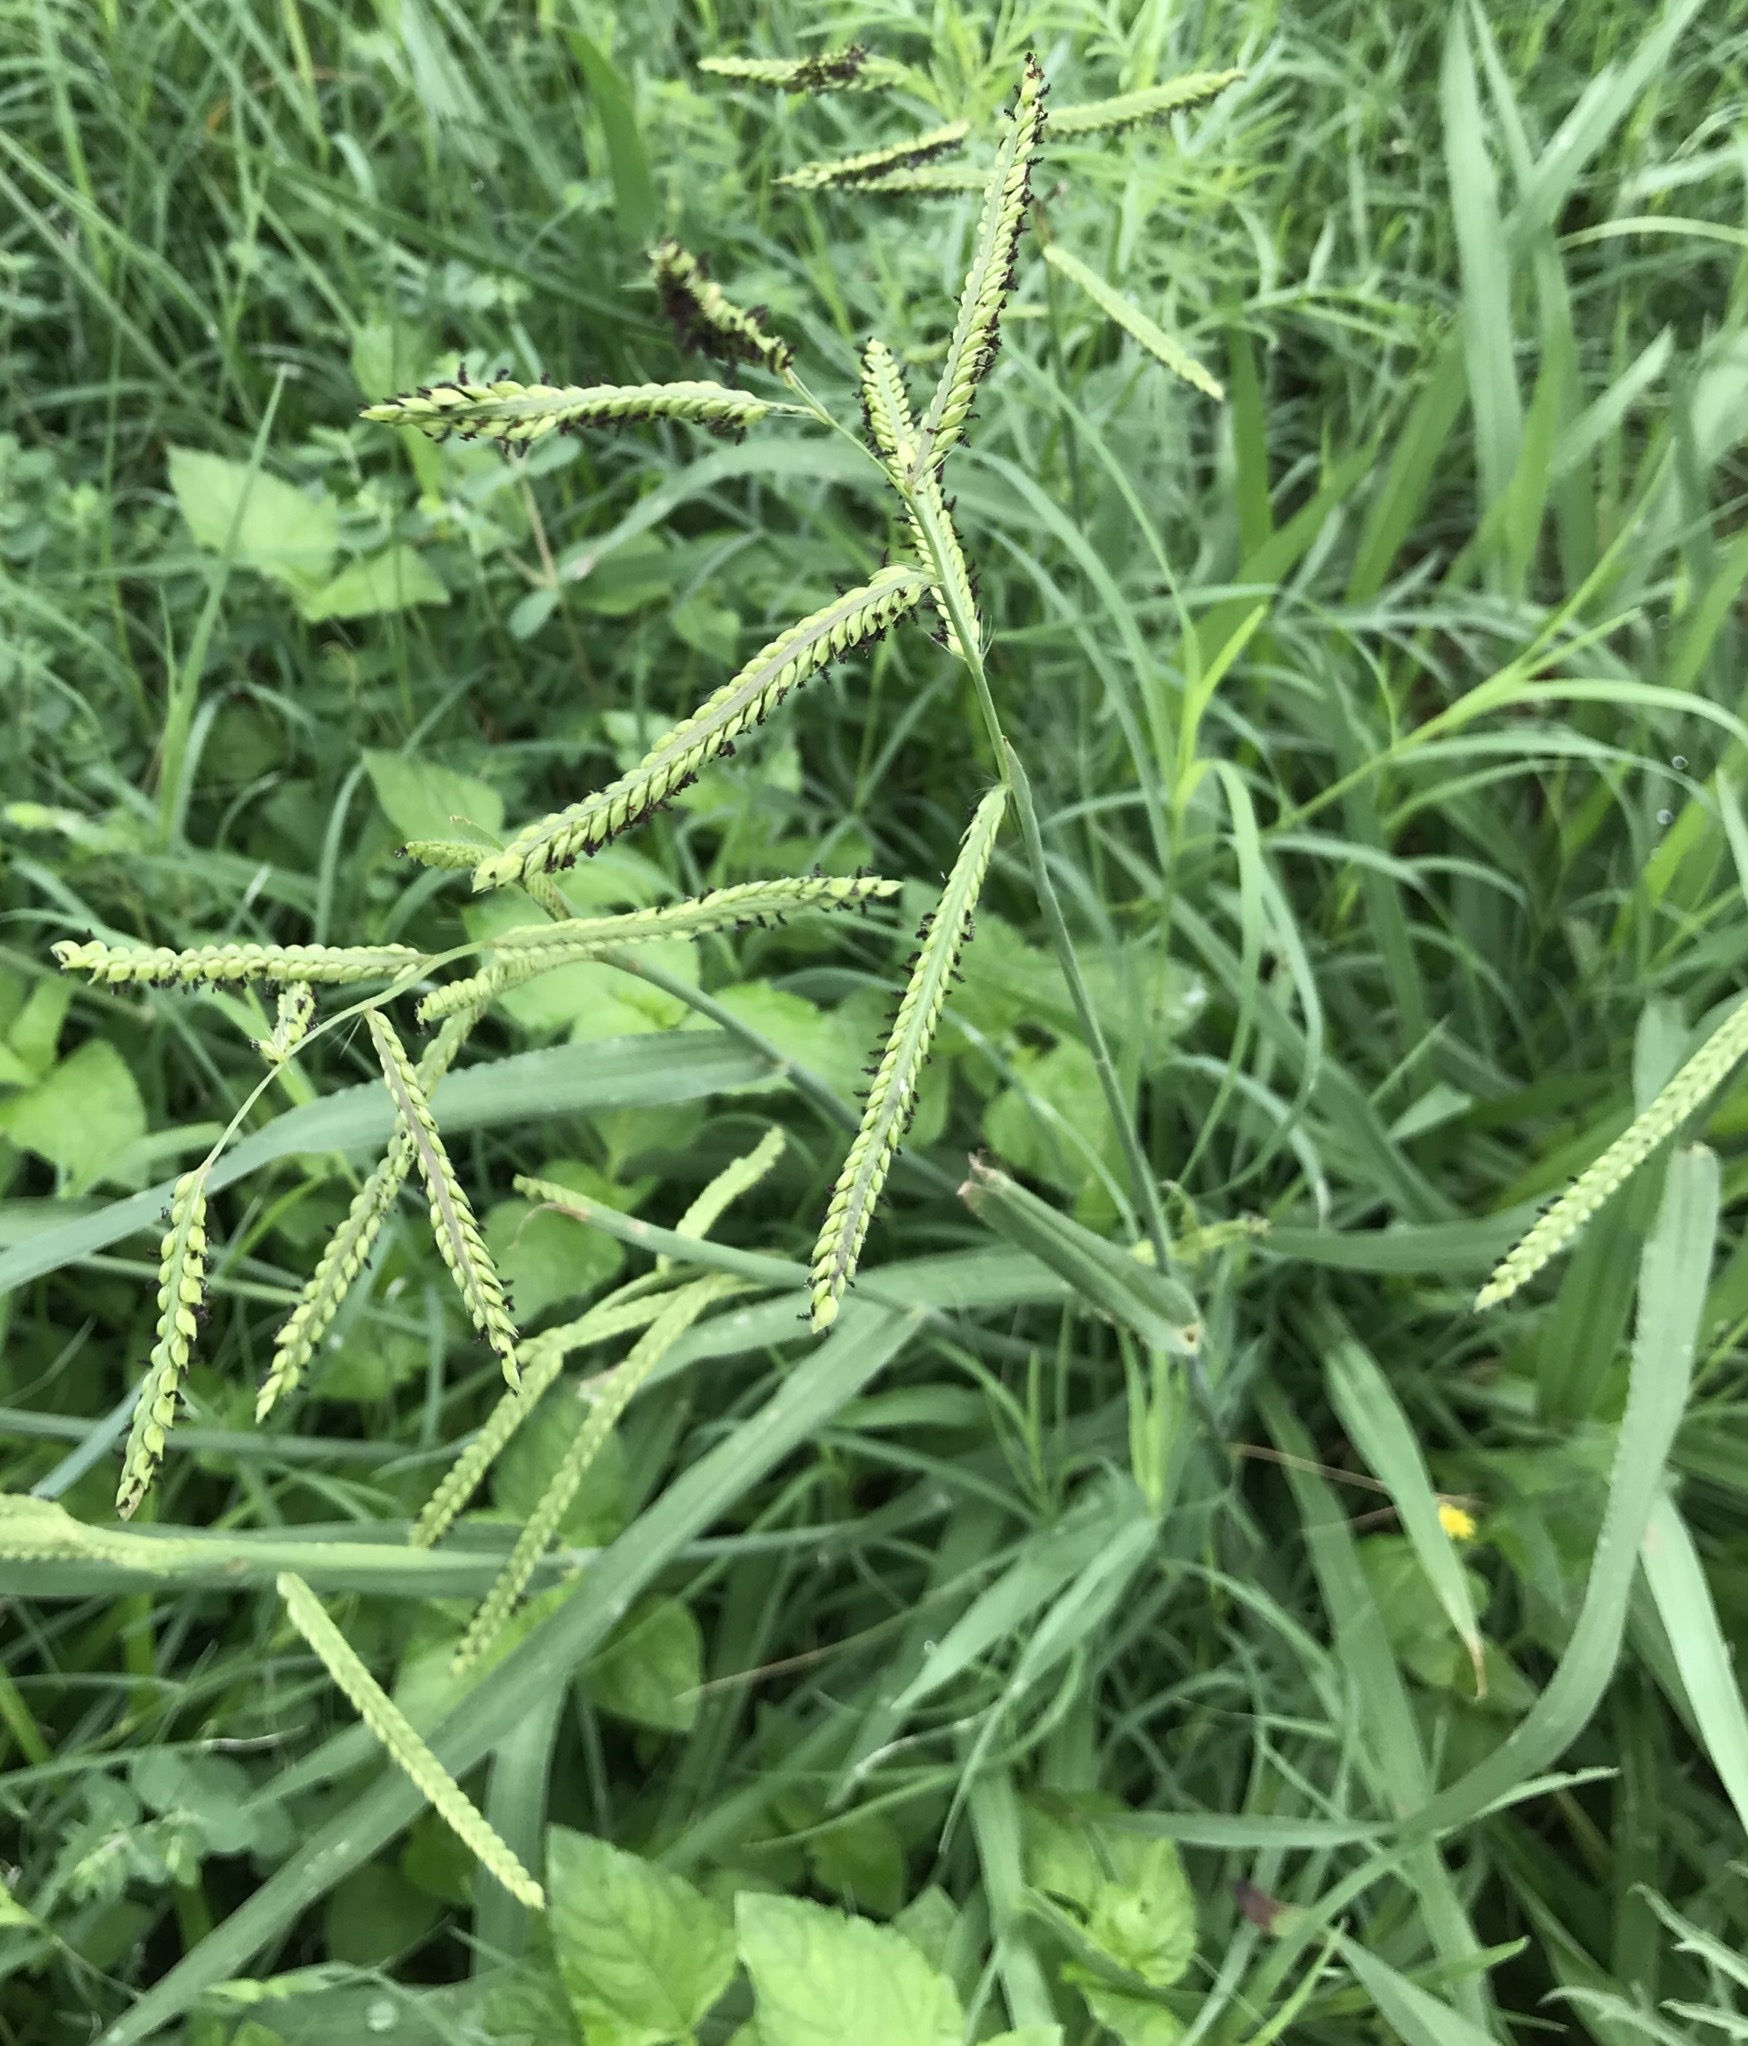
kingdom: Plantae
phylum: Tracheophyta
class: Liliopsida
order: Poales
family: Poaceae
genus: Paspalum
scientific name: Paspalum dilatatum
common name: Dallisgrass
